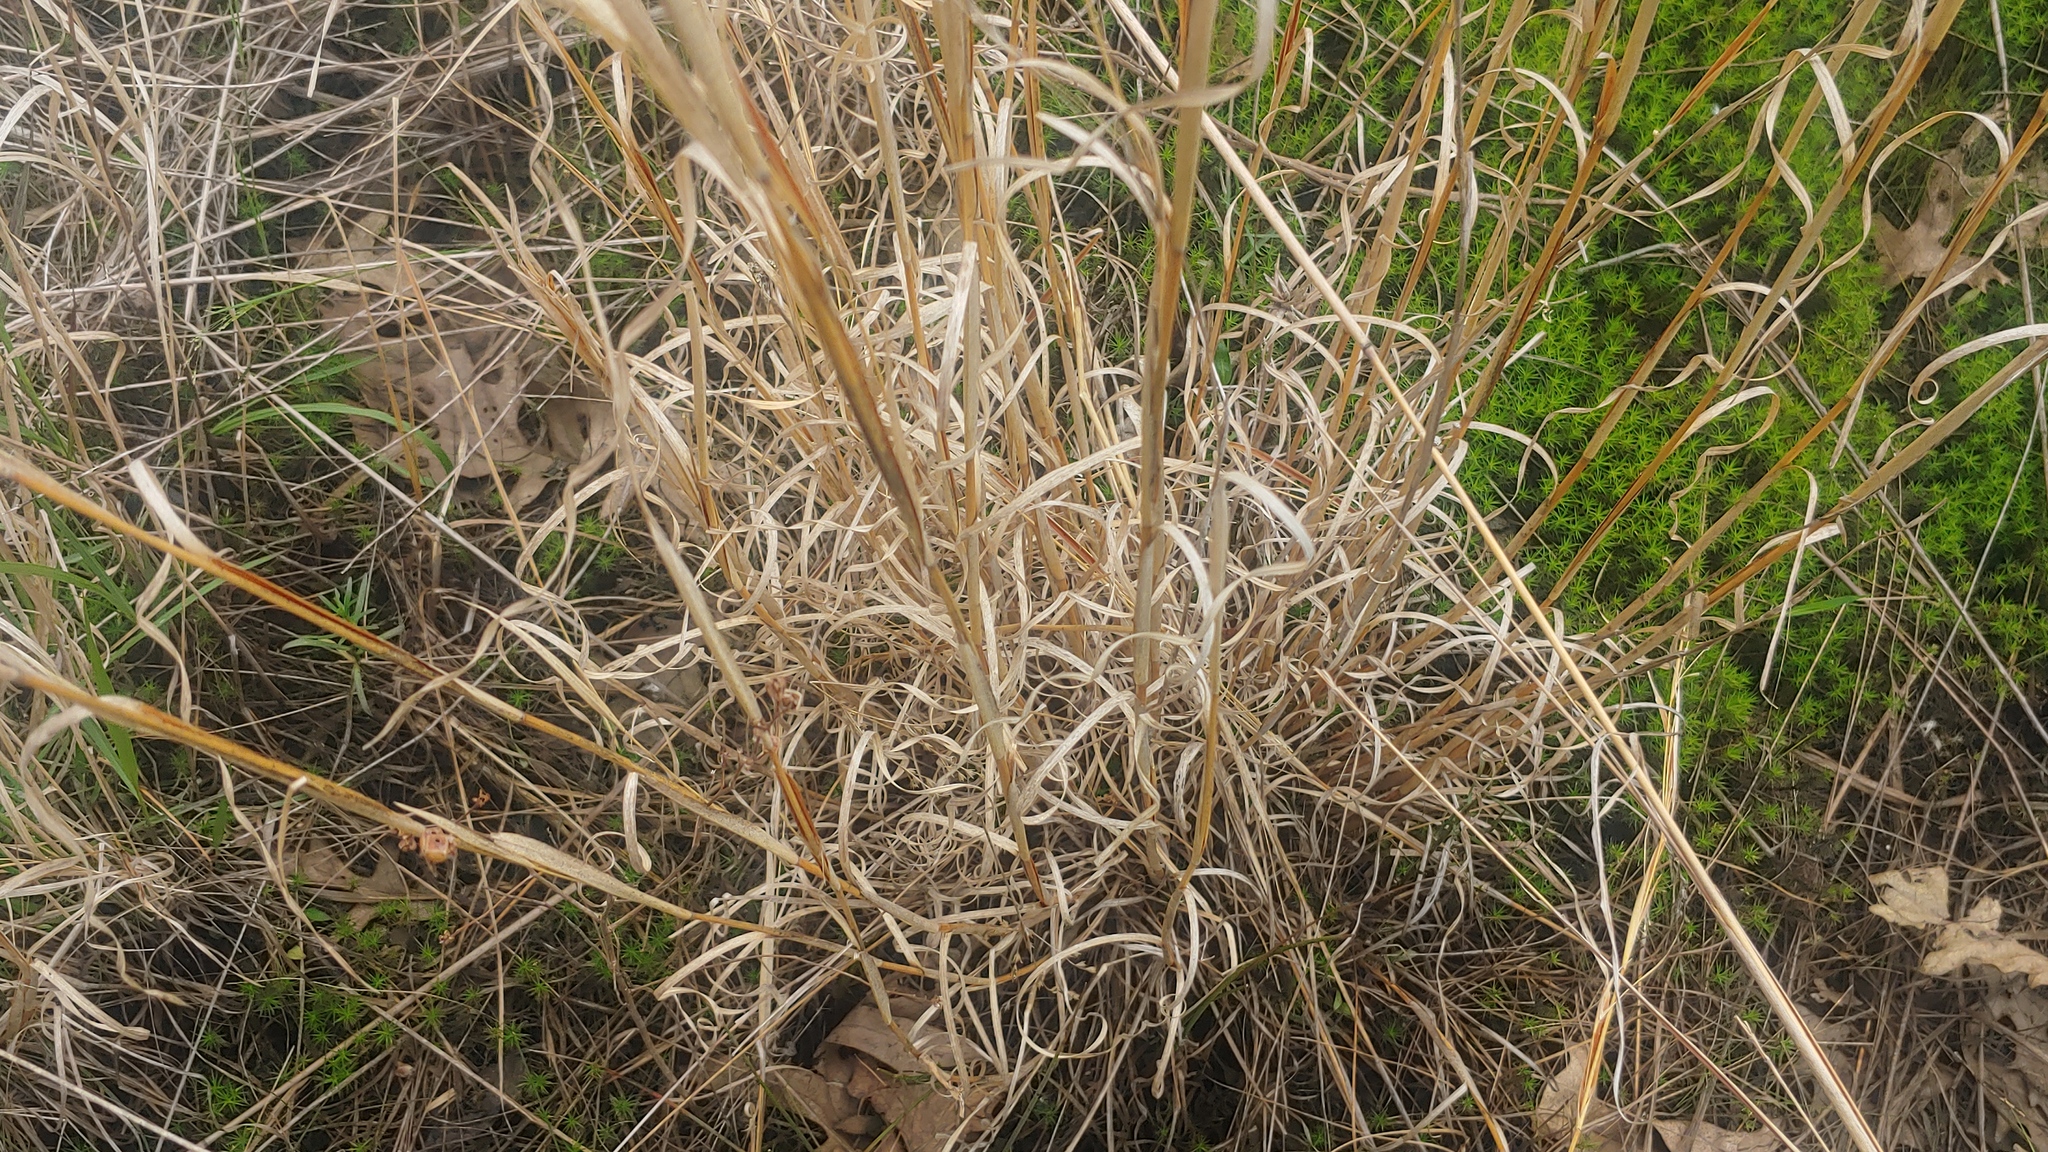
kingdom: Plantae
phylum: Tracheophyta
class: Liliopsida
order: Poales
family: Poaceae
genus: Andropogon
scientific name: Andropogon virginicus
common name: Broomsedge bluestem
